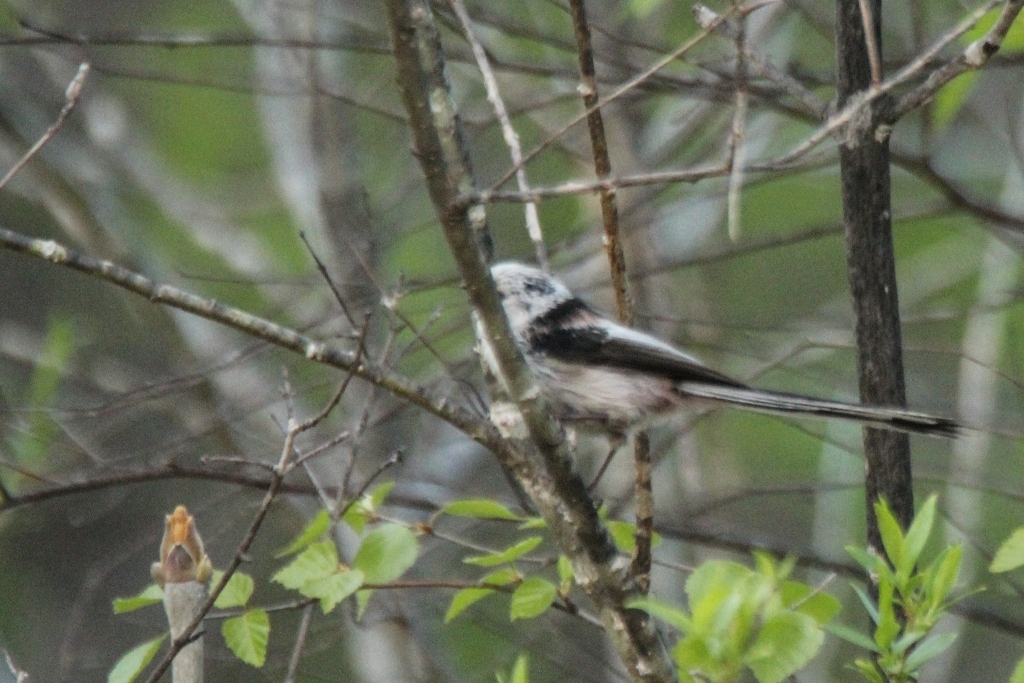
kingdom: Animalia
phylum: Chordata
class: Aves
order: Passeriformes
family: Aegithalidae
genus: Aegithalos
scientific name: Aegithalos caudatus
